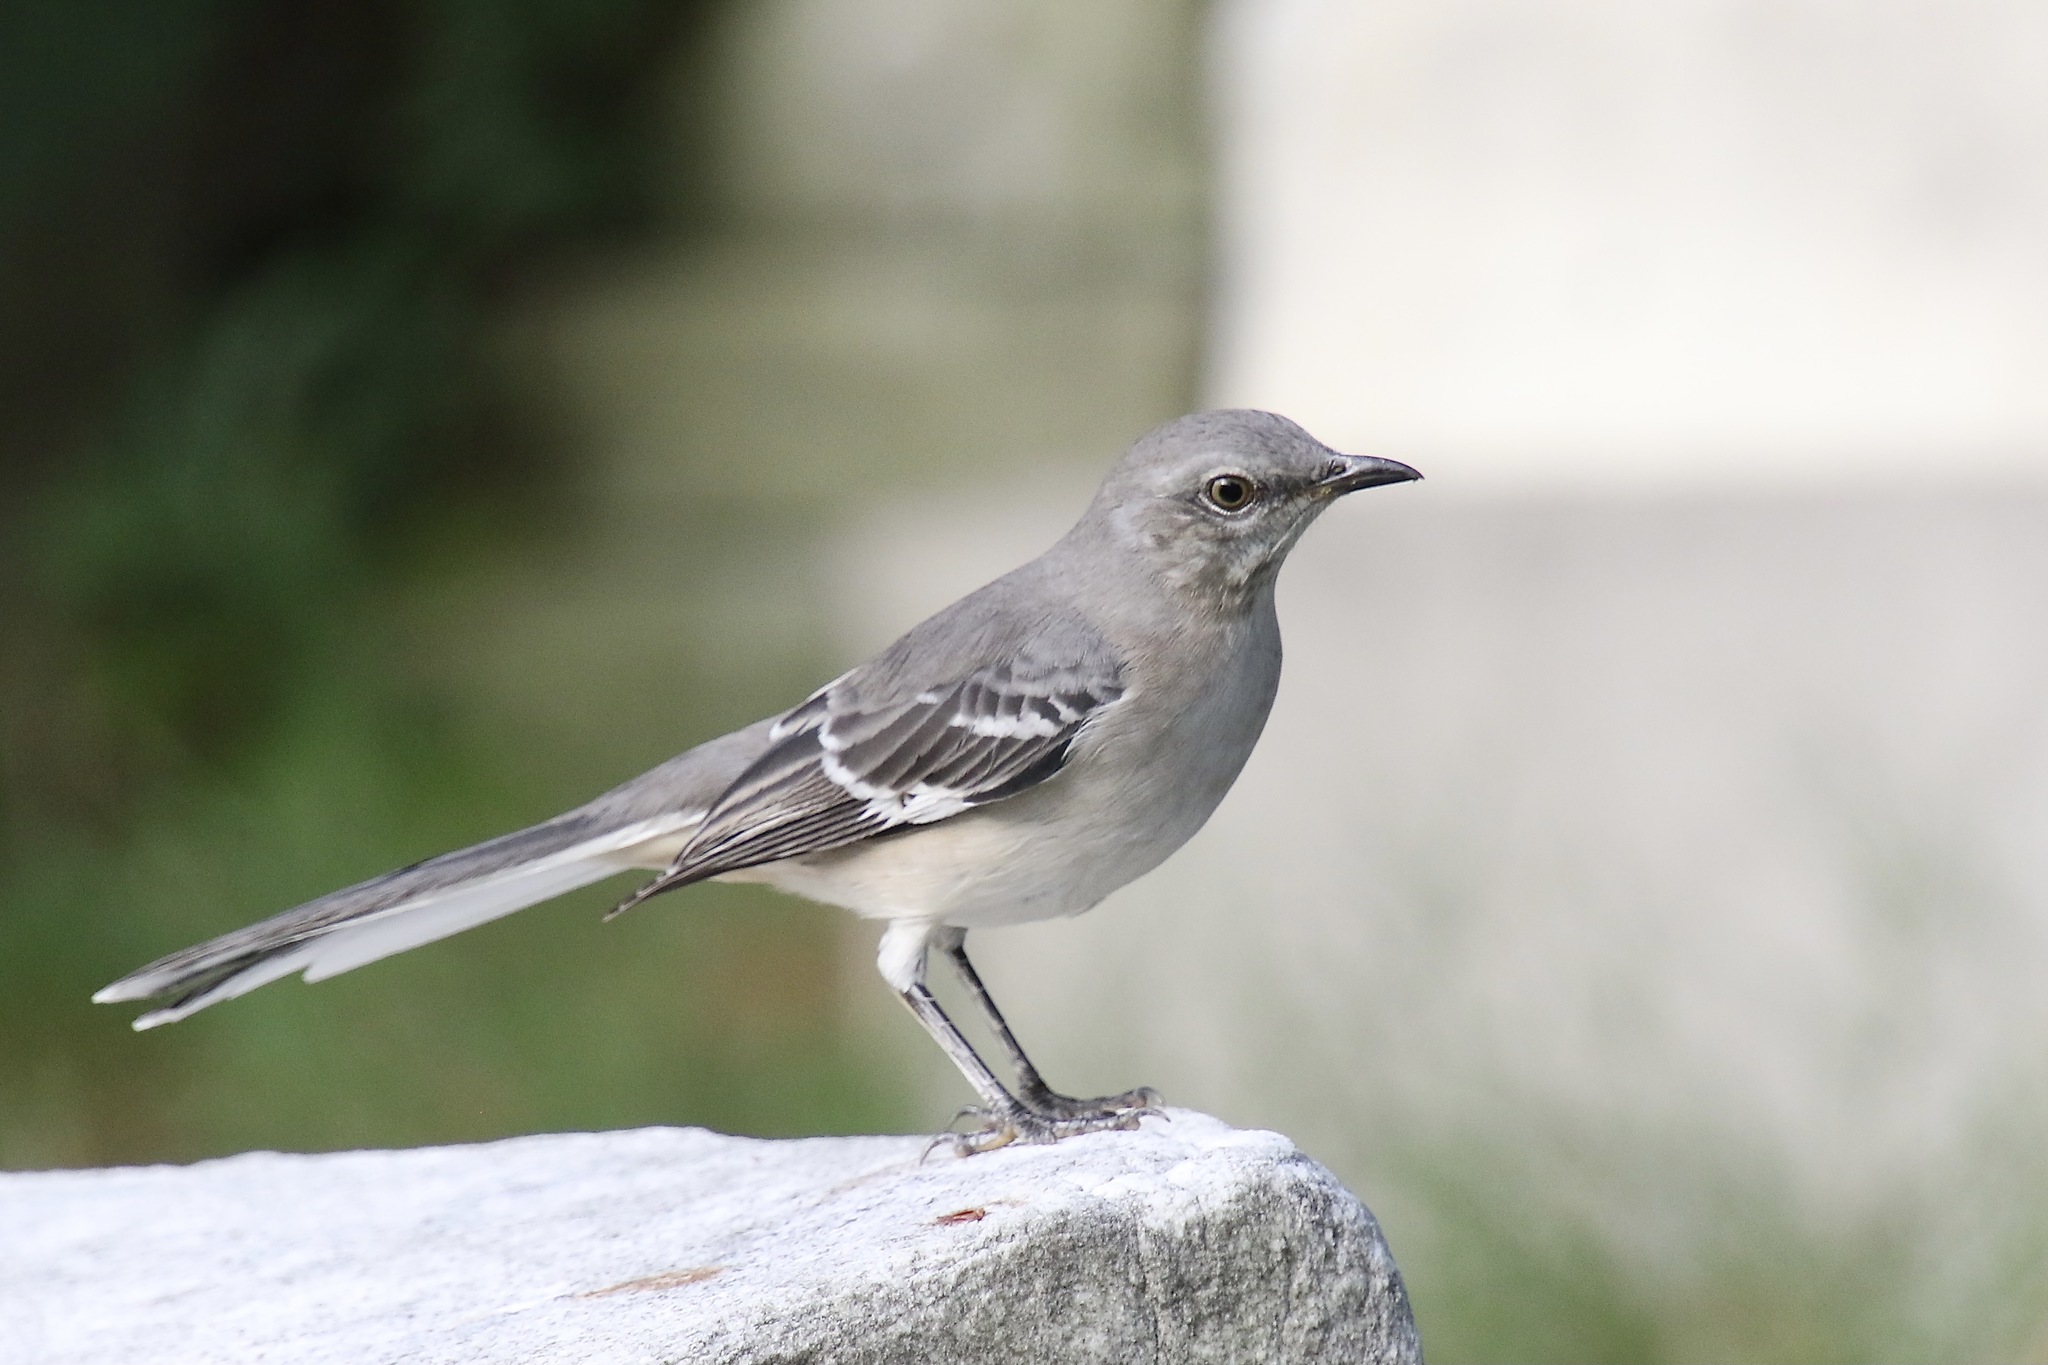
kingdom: Animalia
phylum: Chordata
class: Aves
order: Passeriformes
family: Mimidae
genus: Mimus
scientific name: Mimus polyglottos
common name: Northern mockingbird
